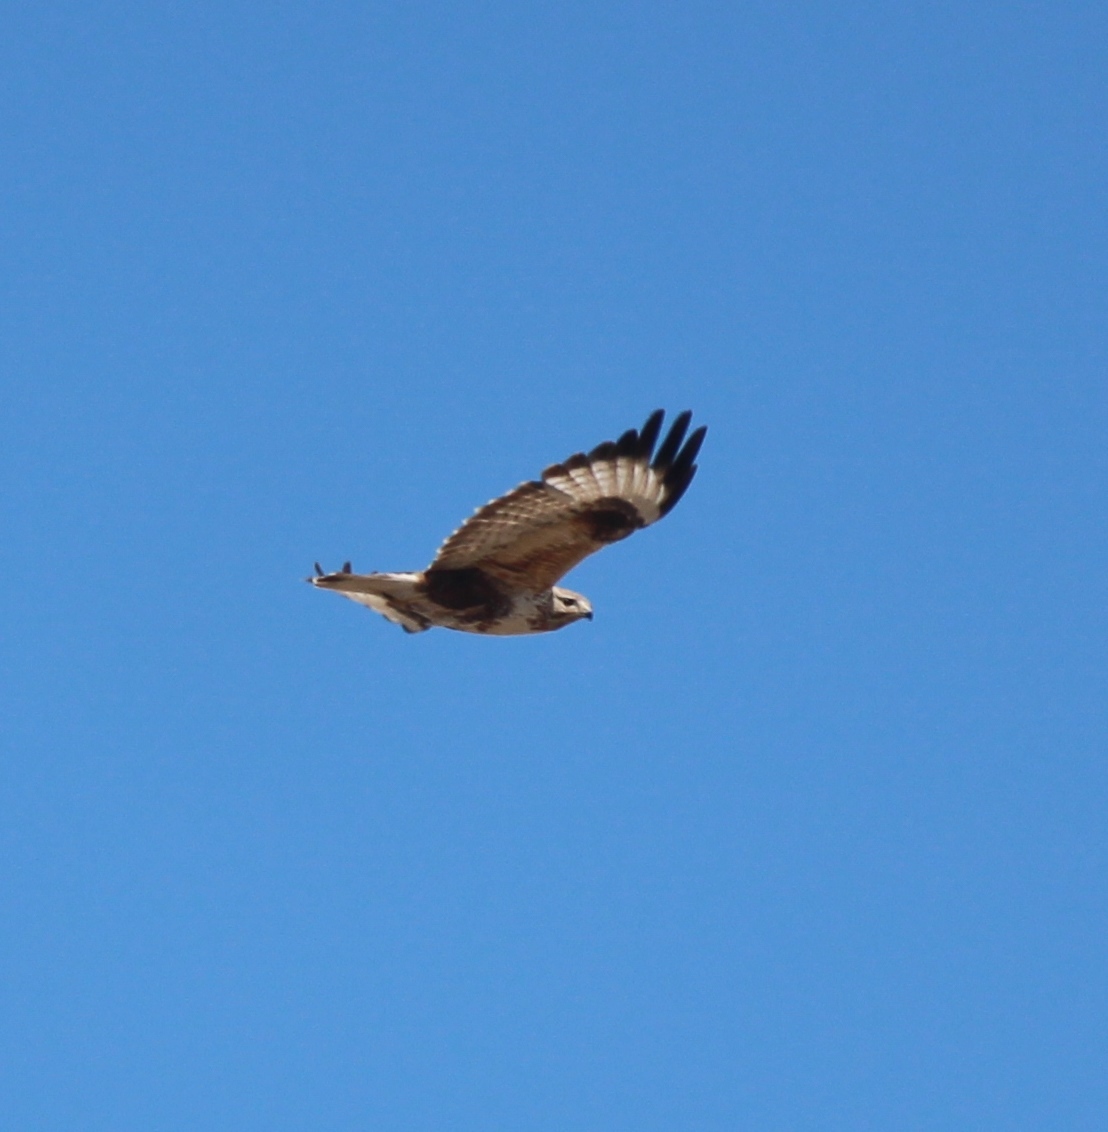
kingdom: Animalia
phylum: Chordata
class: Aves
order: Accipitriformes
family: Accipitridae
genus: Buteo
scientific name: Buteo hemilasius
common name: Upland buzzard
